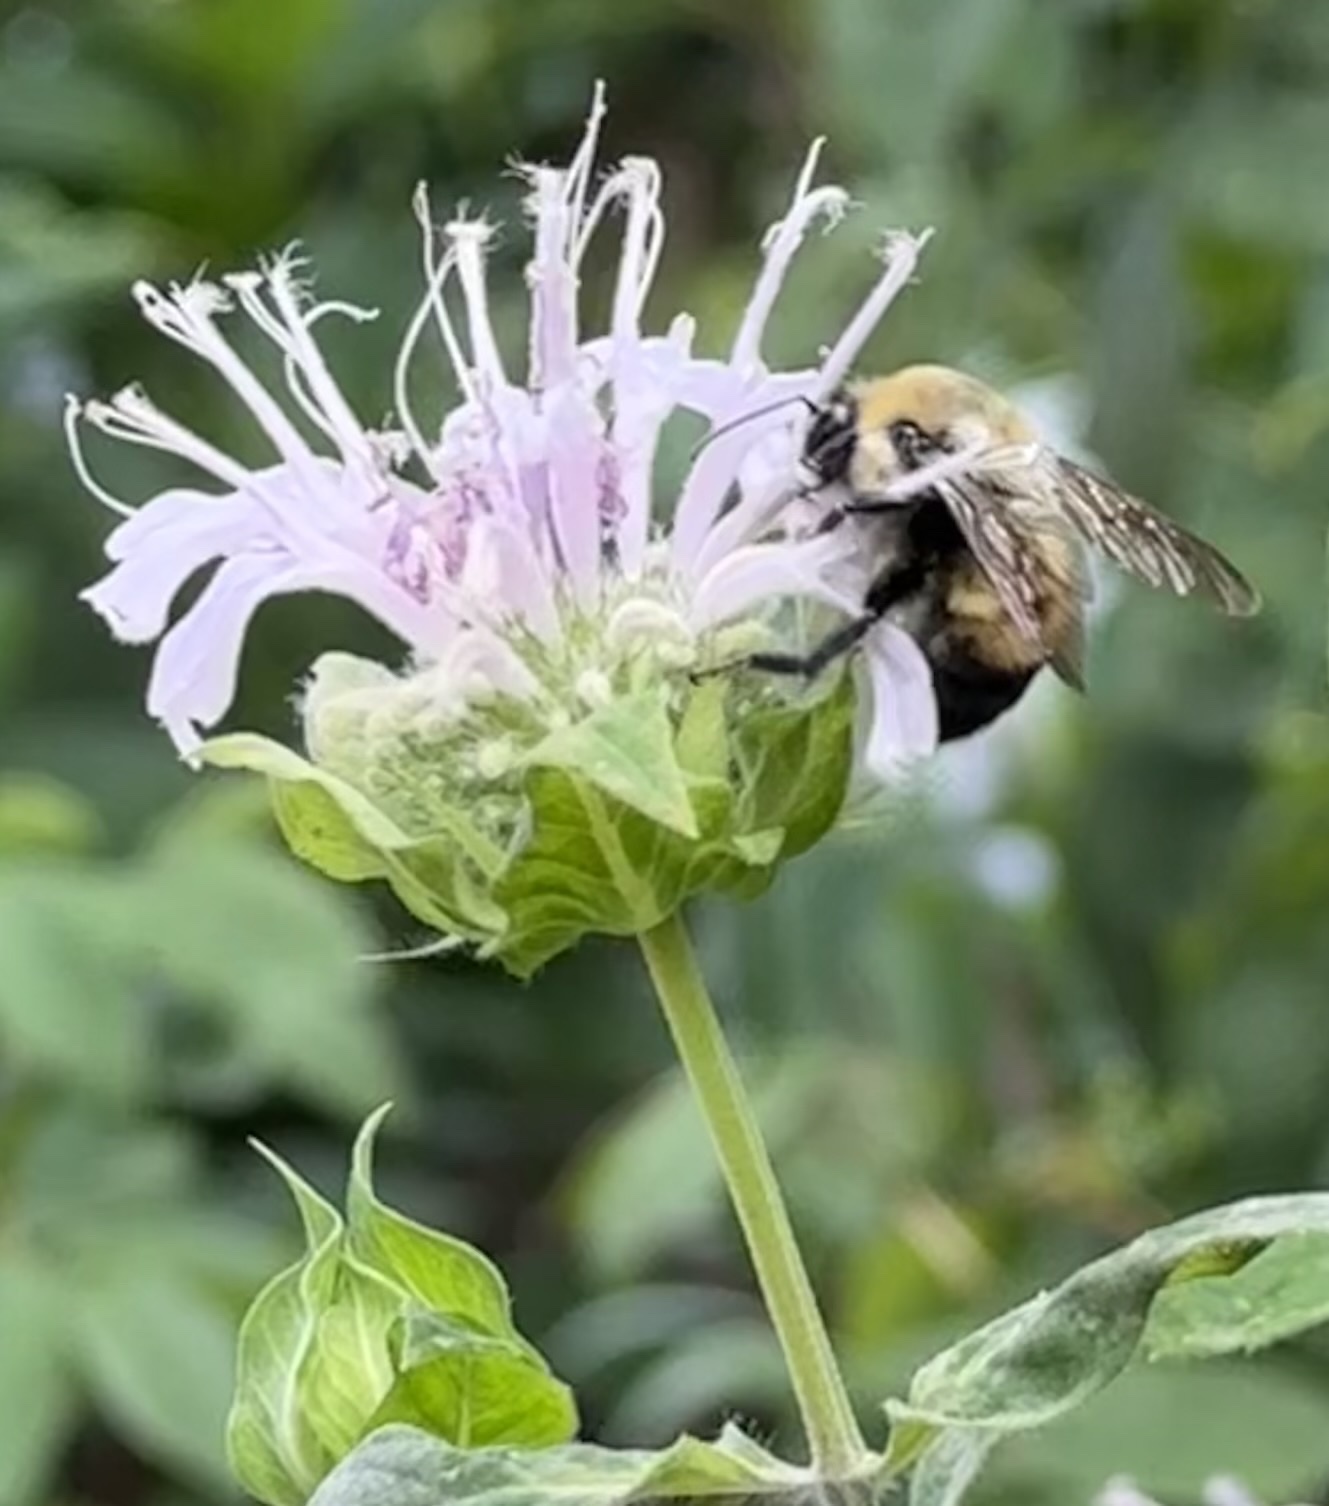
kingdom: Animalia
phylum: Arthropoda
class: Insecta
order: Hymenoptera
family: Apidae
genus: Bombus
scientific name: Bombus griseocollis
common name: Brown-belted bumble bee
